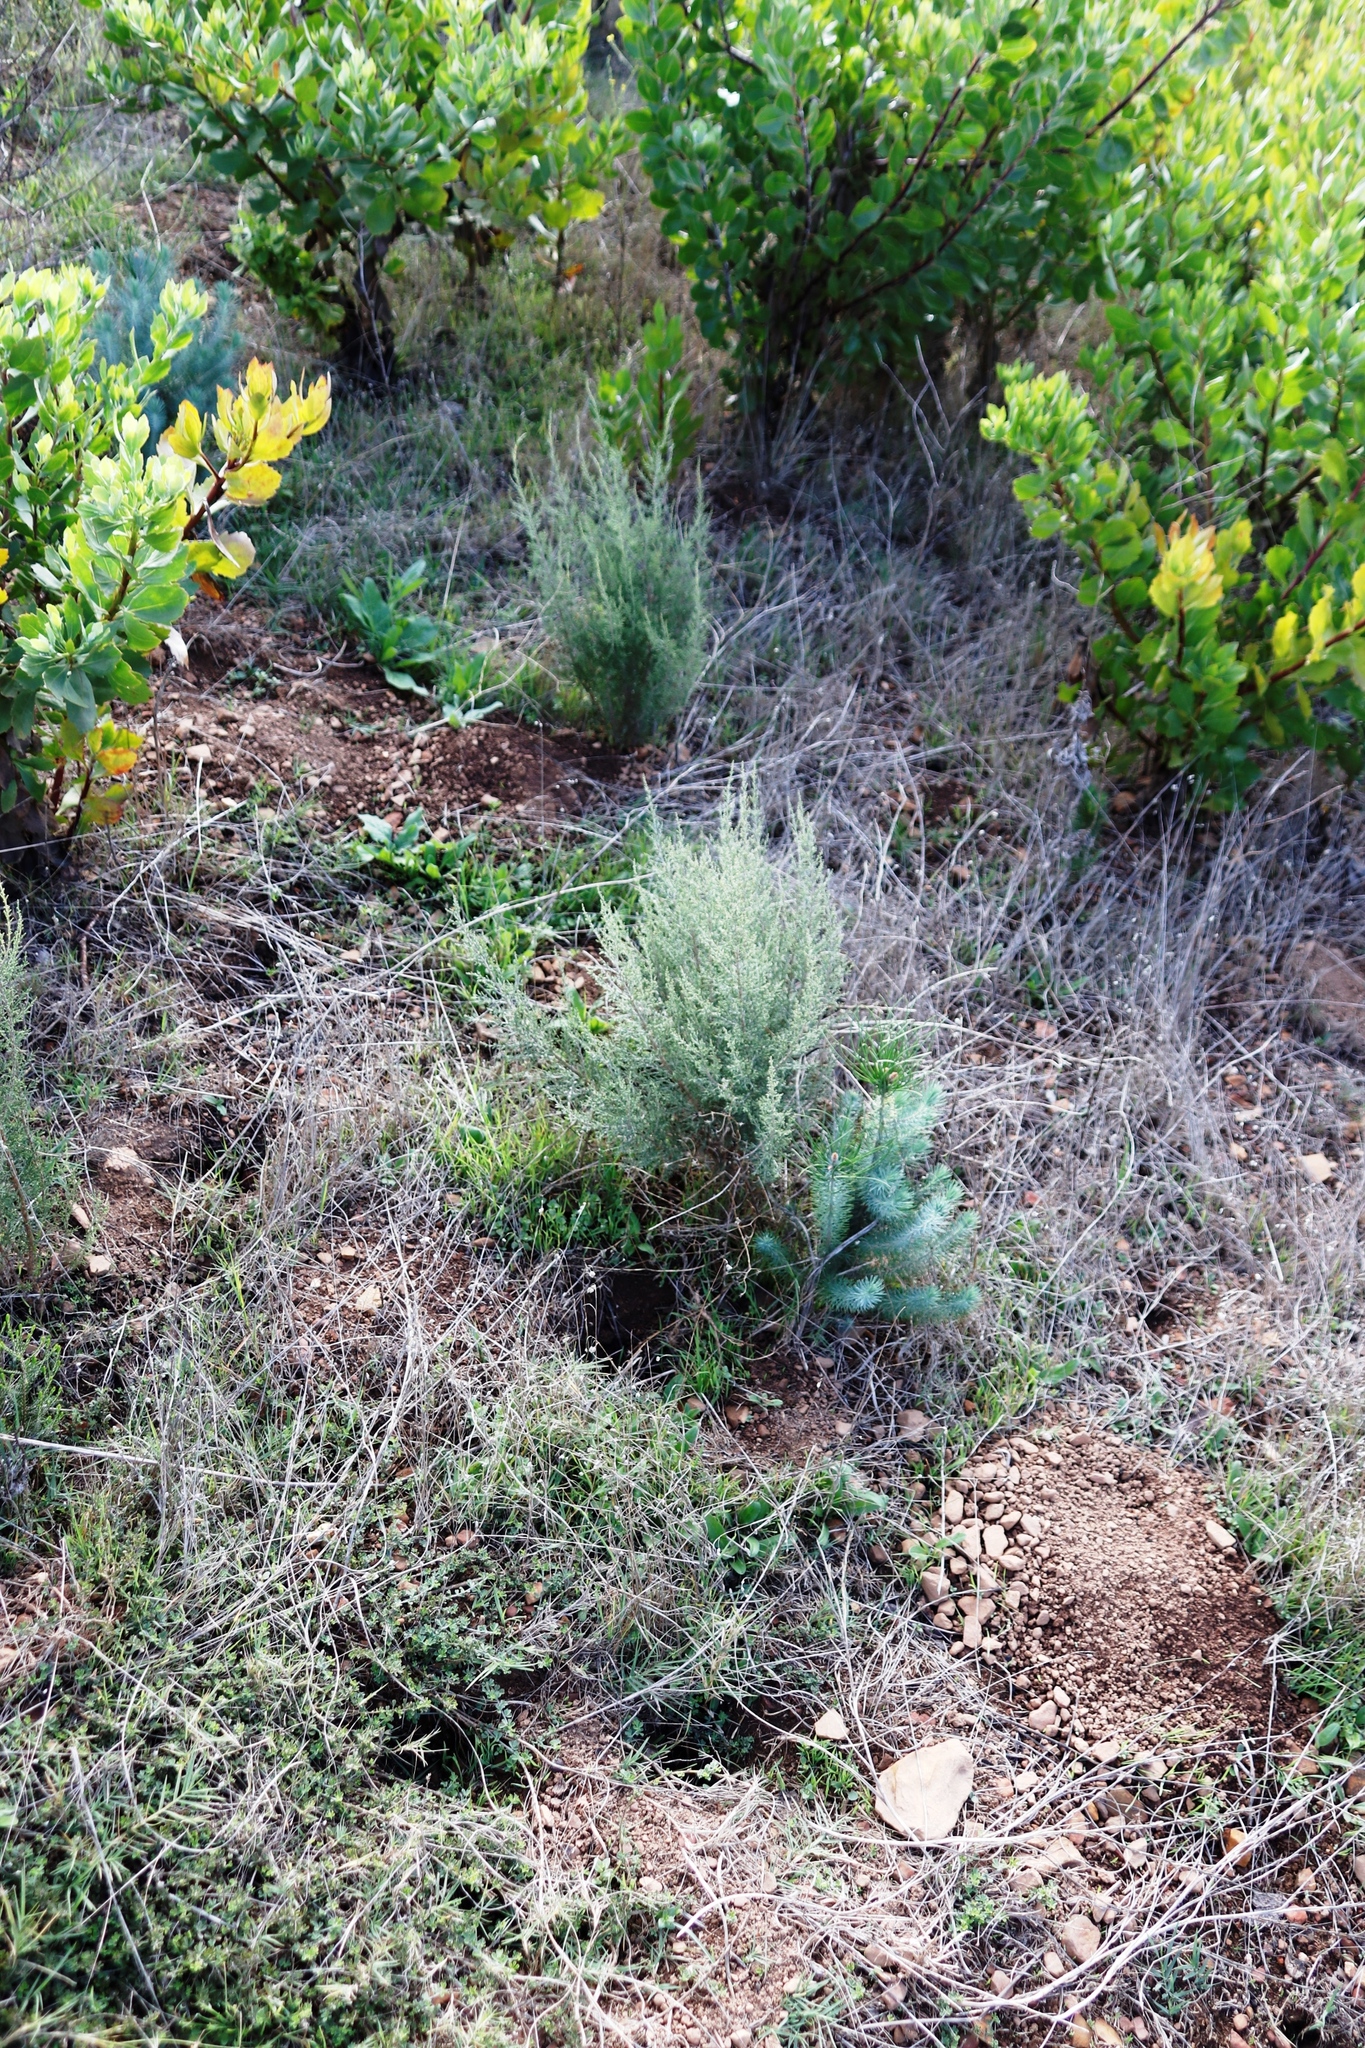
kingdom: Plantae
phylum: Tracheophyta
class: Magnoliopsida
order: Asterales
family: Asteraceae
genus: Dicerothamnus
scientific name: Dicerothamnus rhinocerotis
